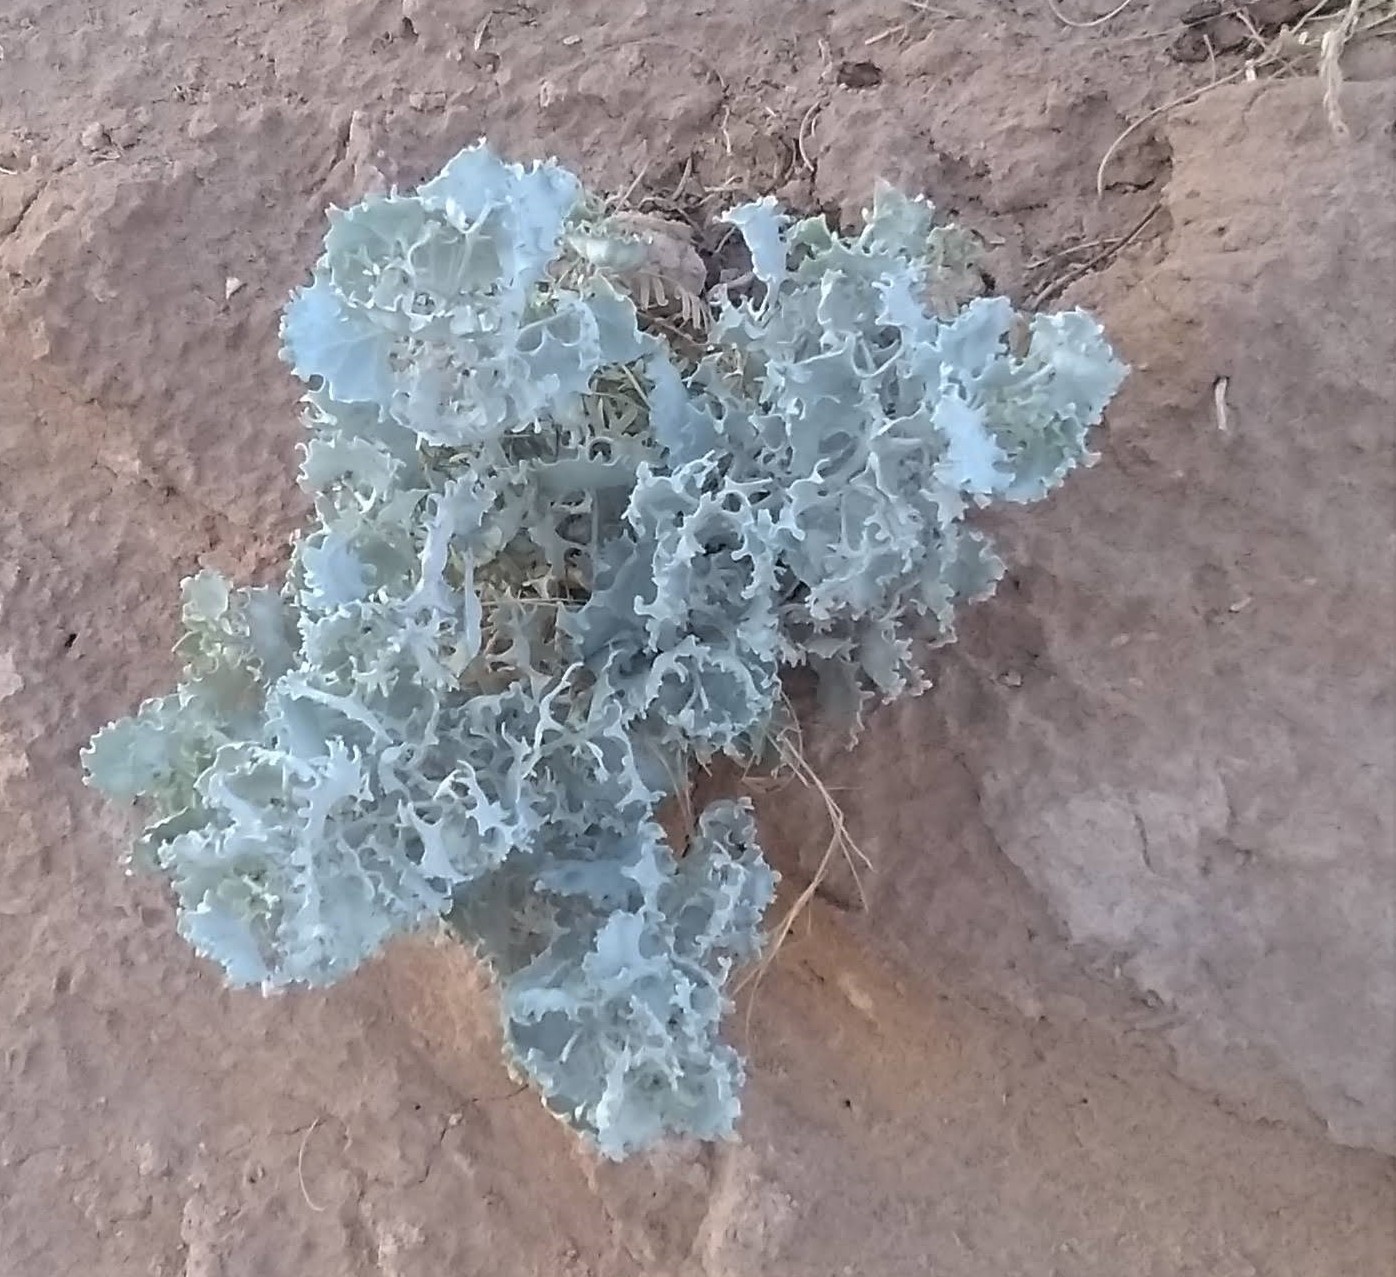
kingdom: Plantae
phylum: Tracheophyta
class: Magnoliopsida
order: Caryophyllales
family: Amaranthaceae
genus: Atriplex
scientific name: Atriplex hymenelytra
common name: Desert-holly
